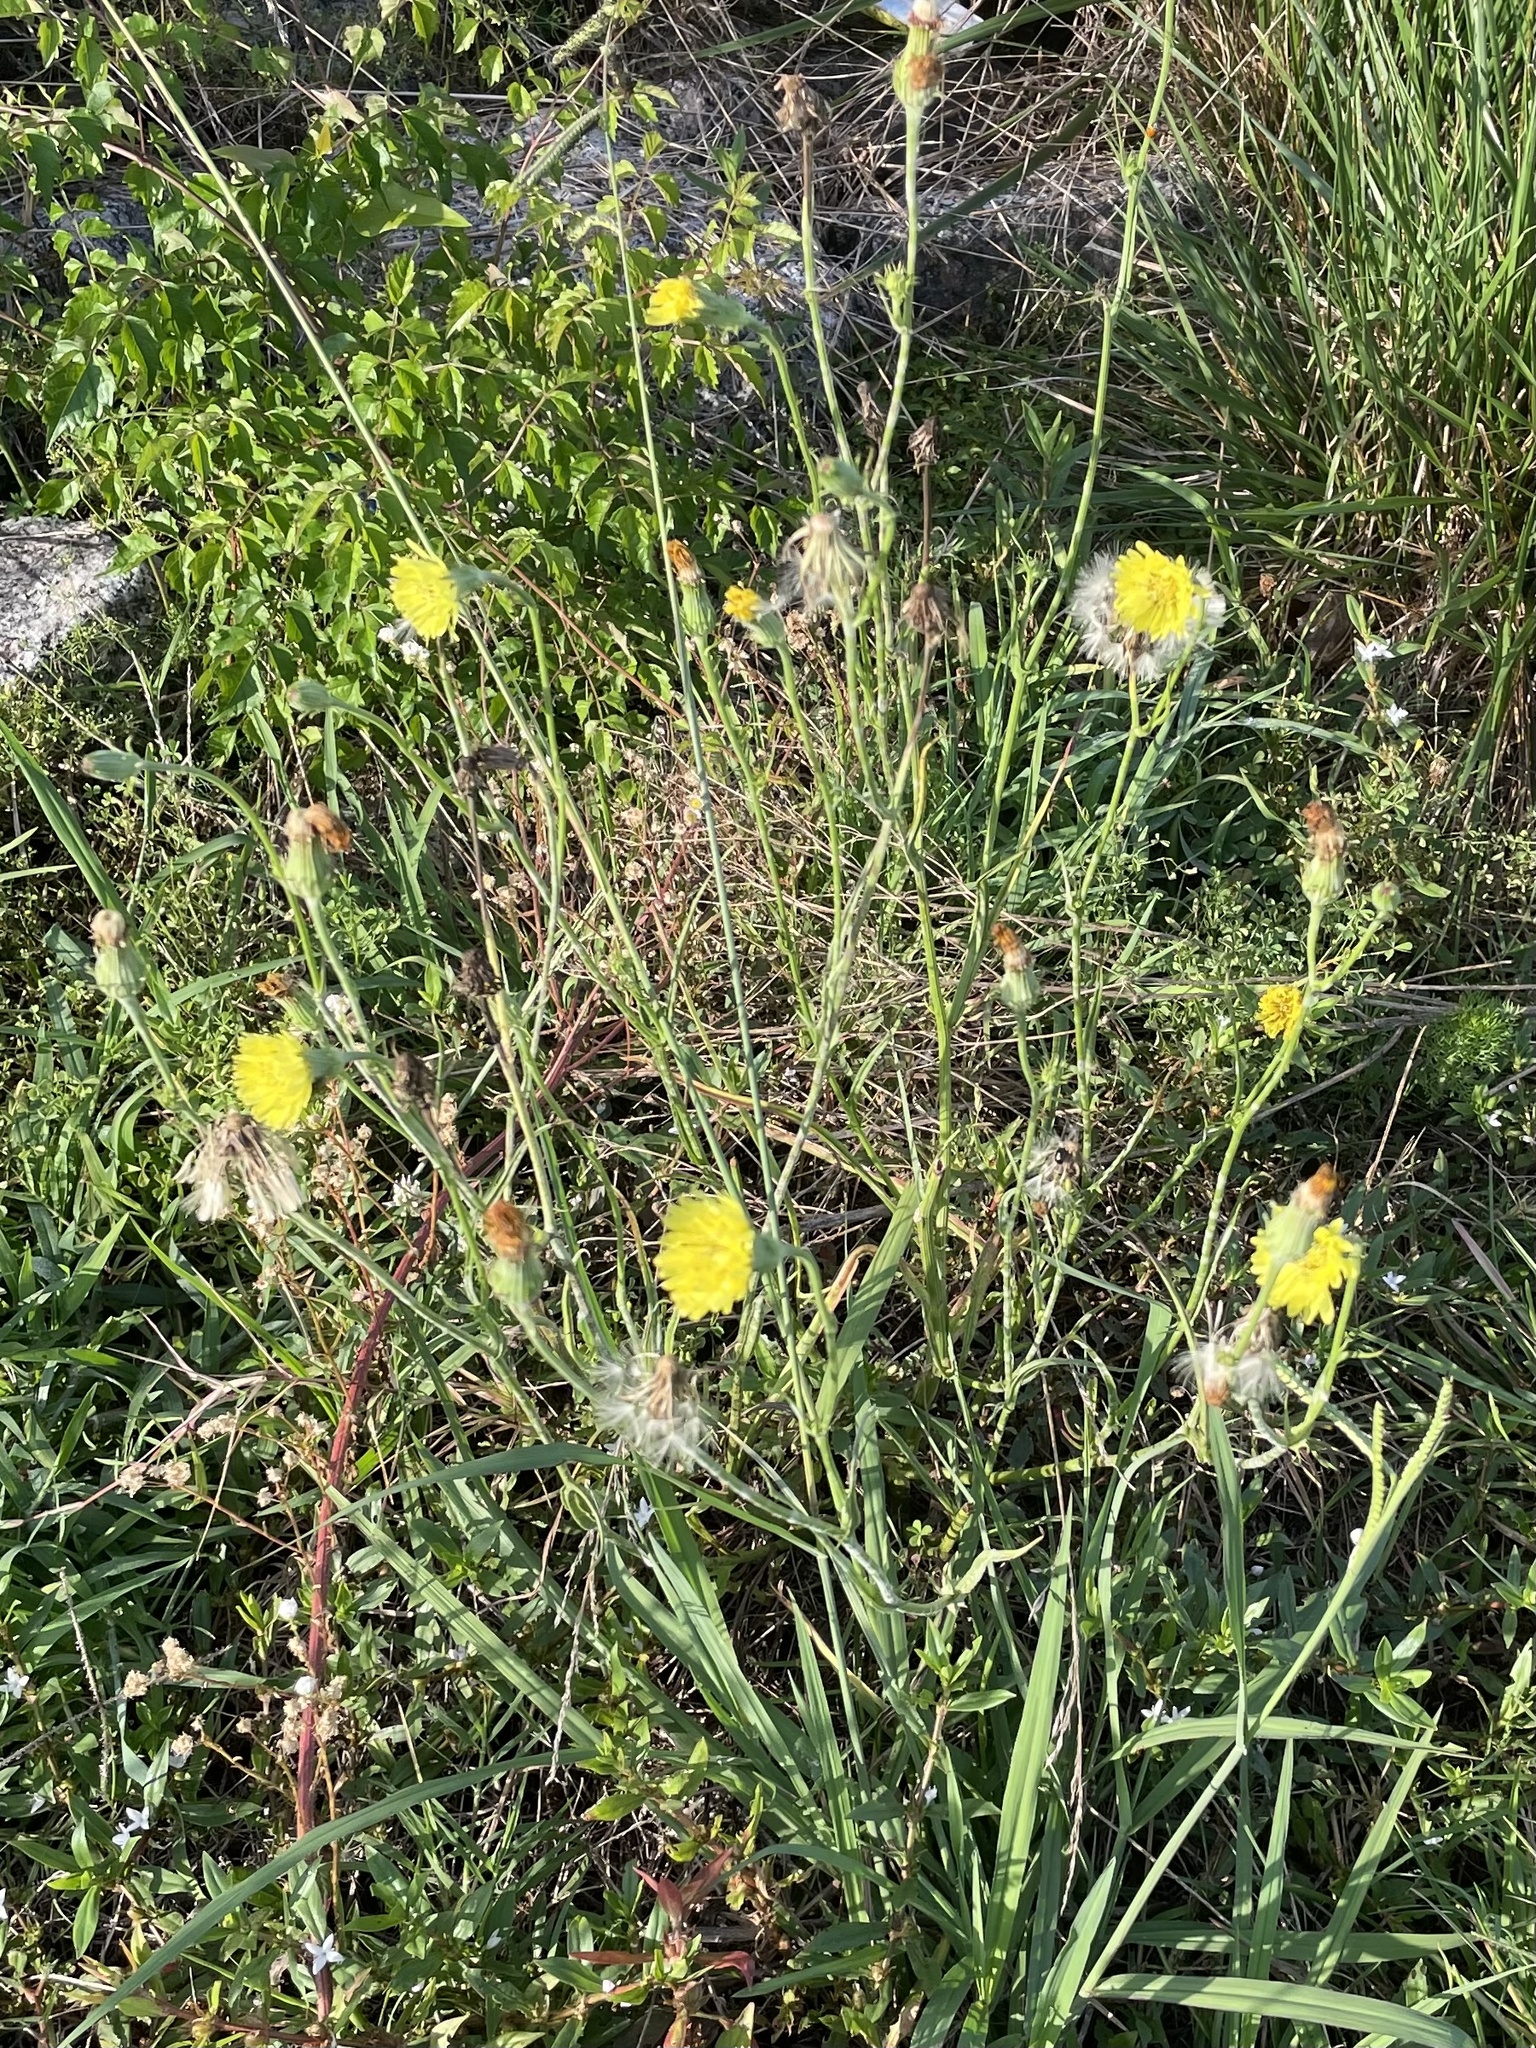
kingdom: Plantae
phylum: Tracheophyta
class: Magnoliopsida
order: Asterales
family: Asteraceae
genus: Pyrrhopappus
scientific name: Pyrrhopappus carolinianus
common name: Carolina desert-chicory
